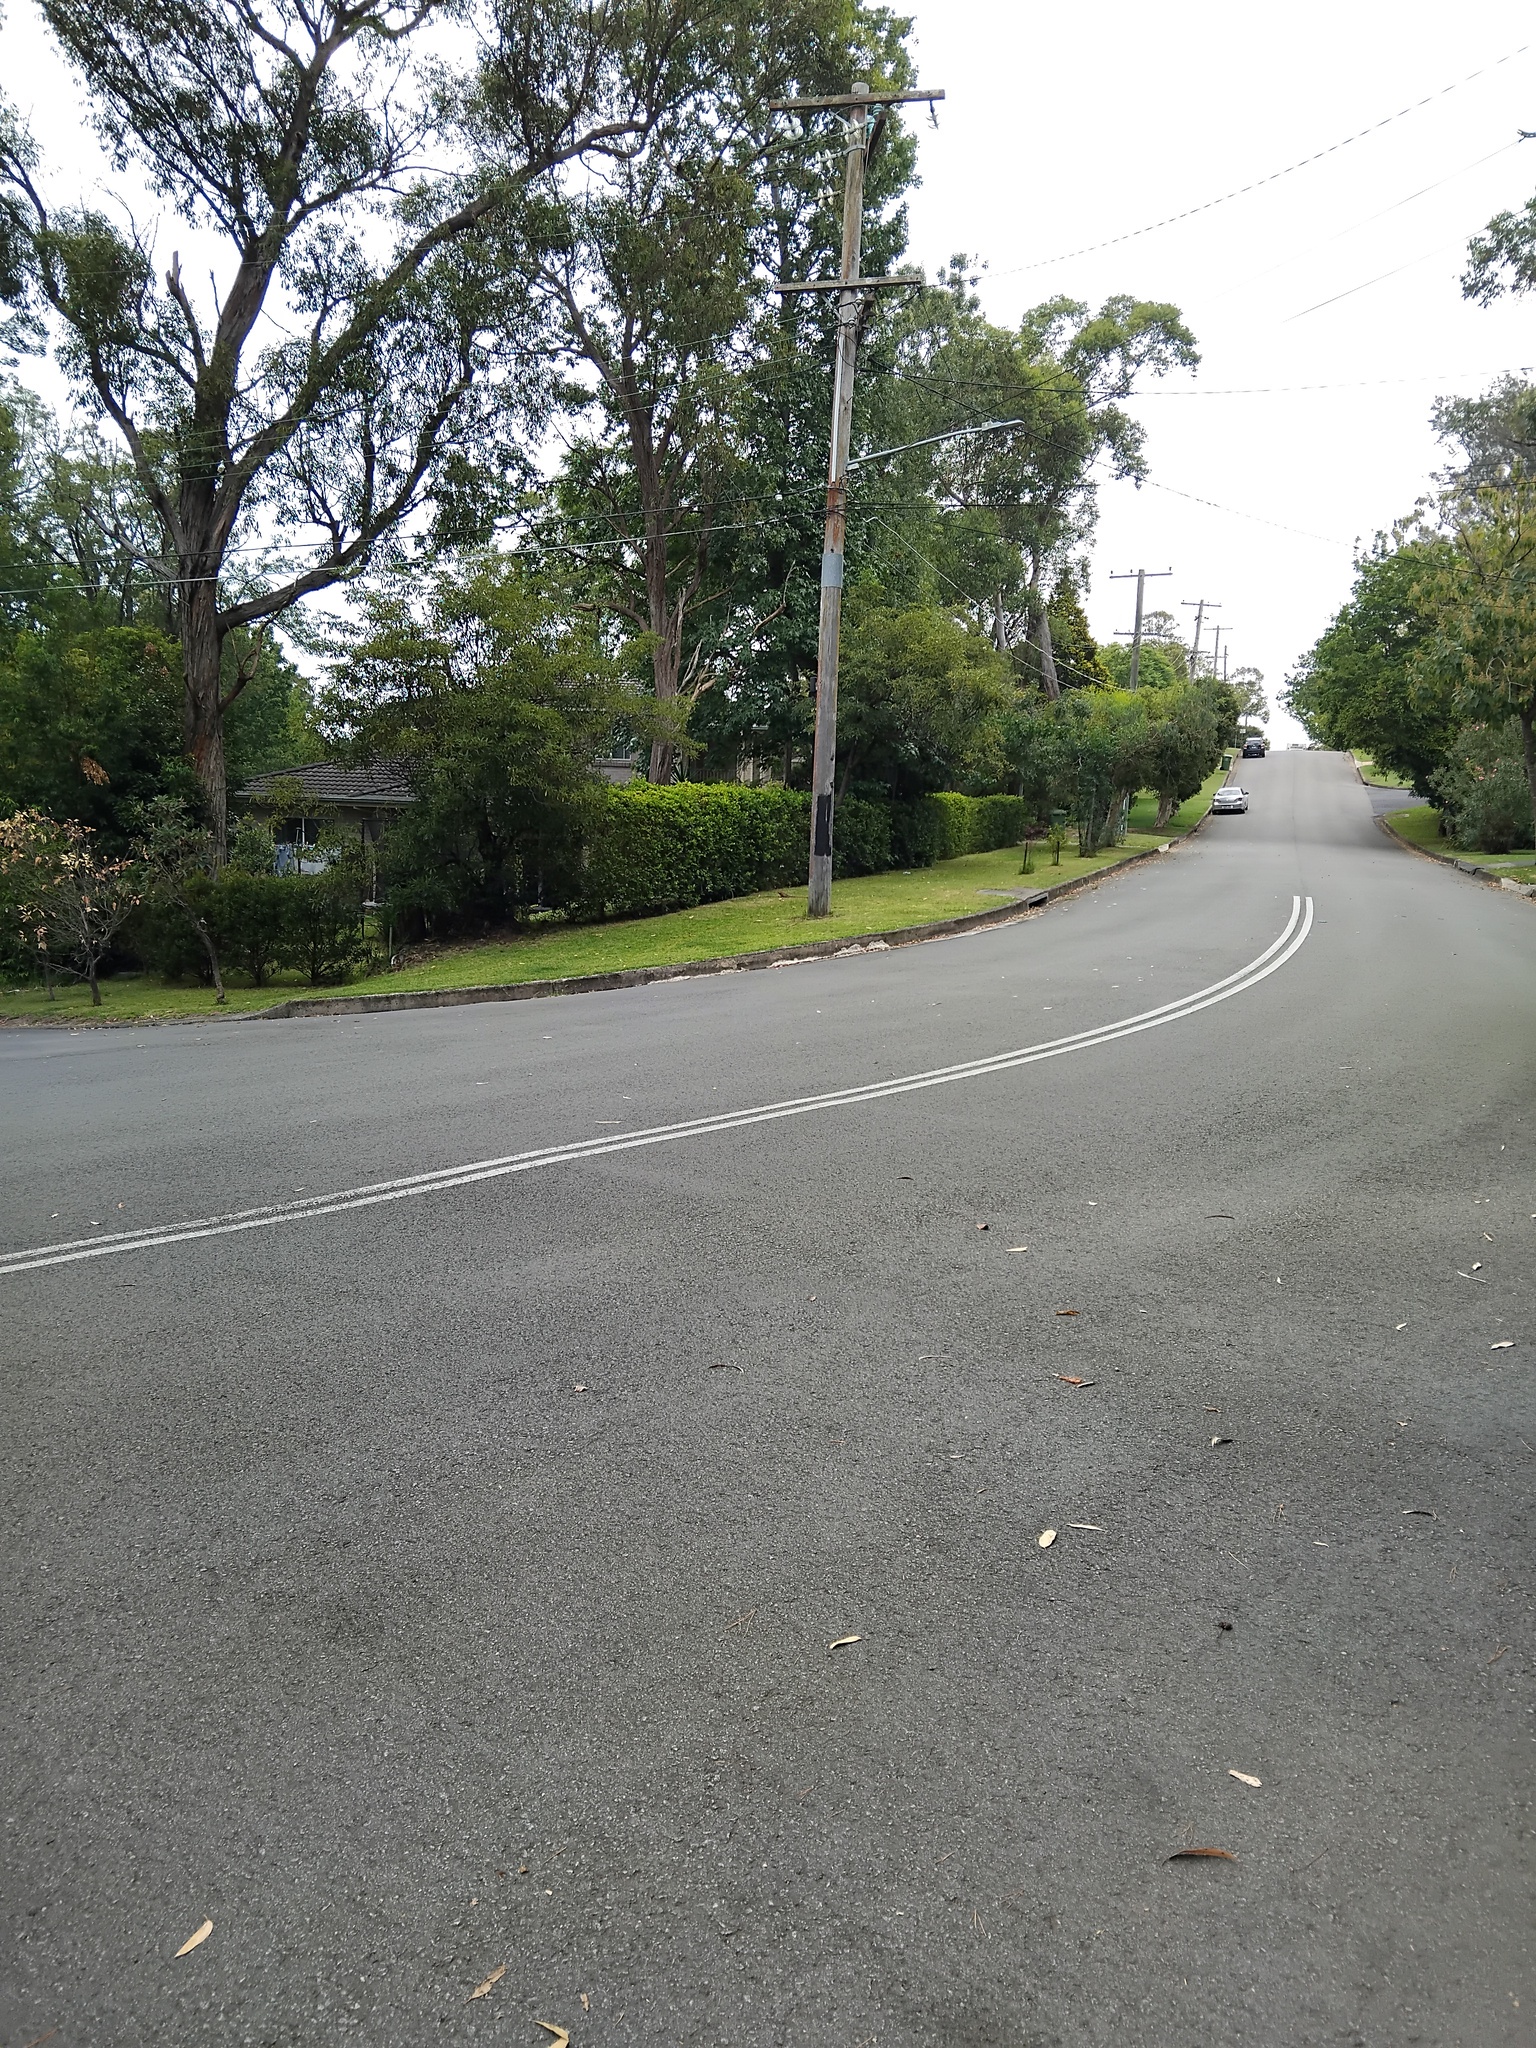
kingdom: Animalia
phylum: Chordata
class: Squamata
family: Agamidae
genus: Intellagama
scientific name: Intellagama lesueurii
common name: Eastern water dragon
